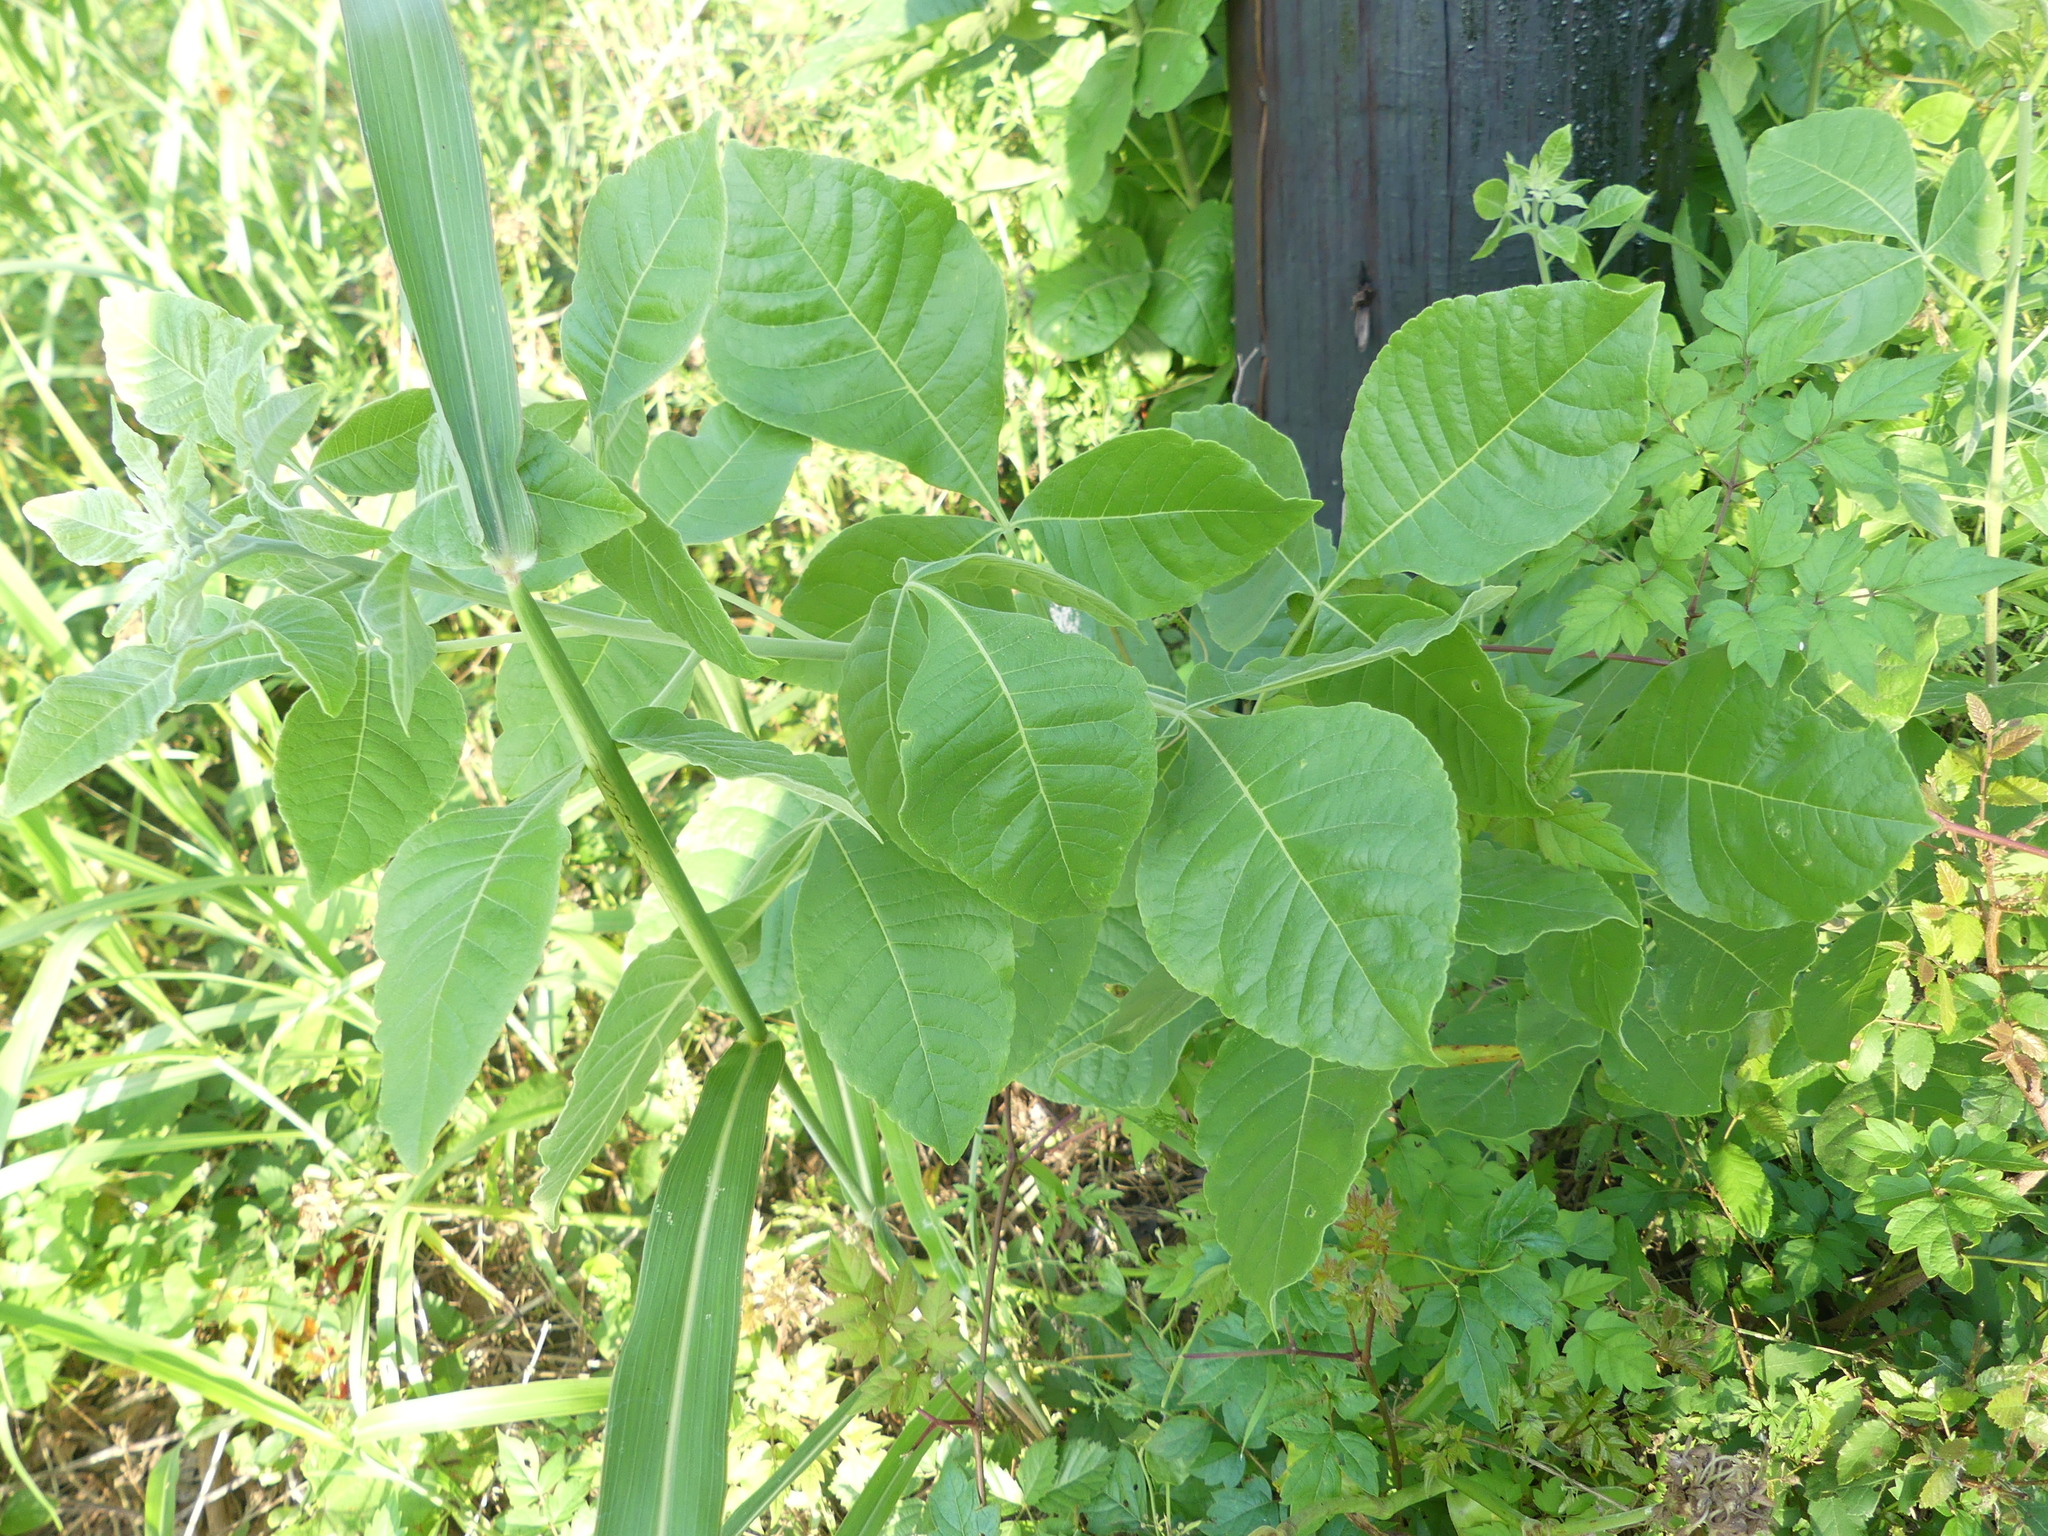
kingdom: Plantae
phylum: Tracheophyta
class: Magnoliopsida
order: Sapindales
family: Rutaceae
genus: Ptelea
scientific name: Ptelea trifoliata
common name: Common hop-tree
